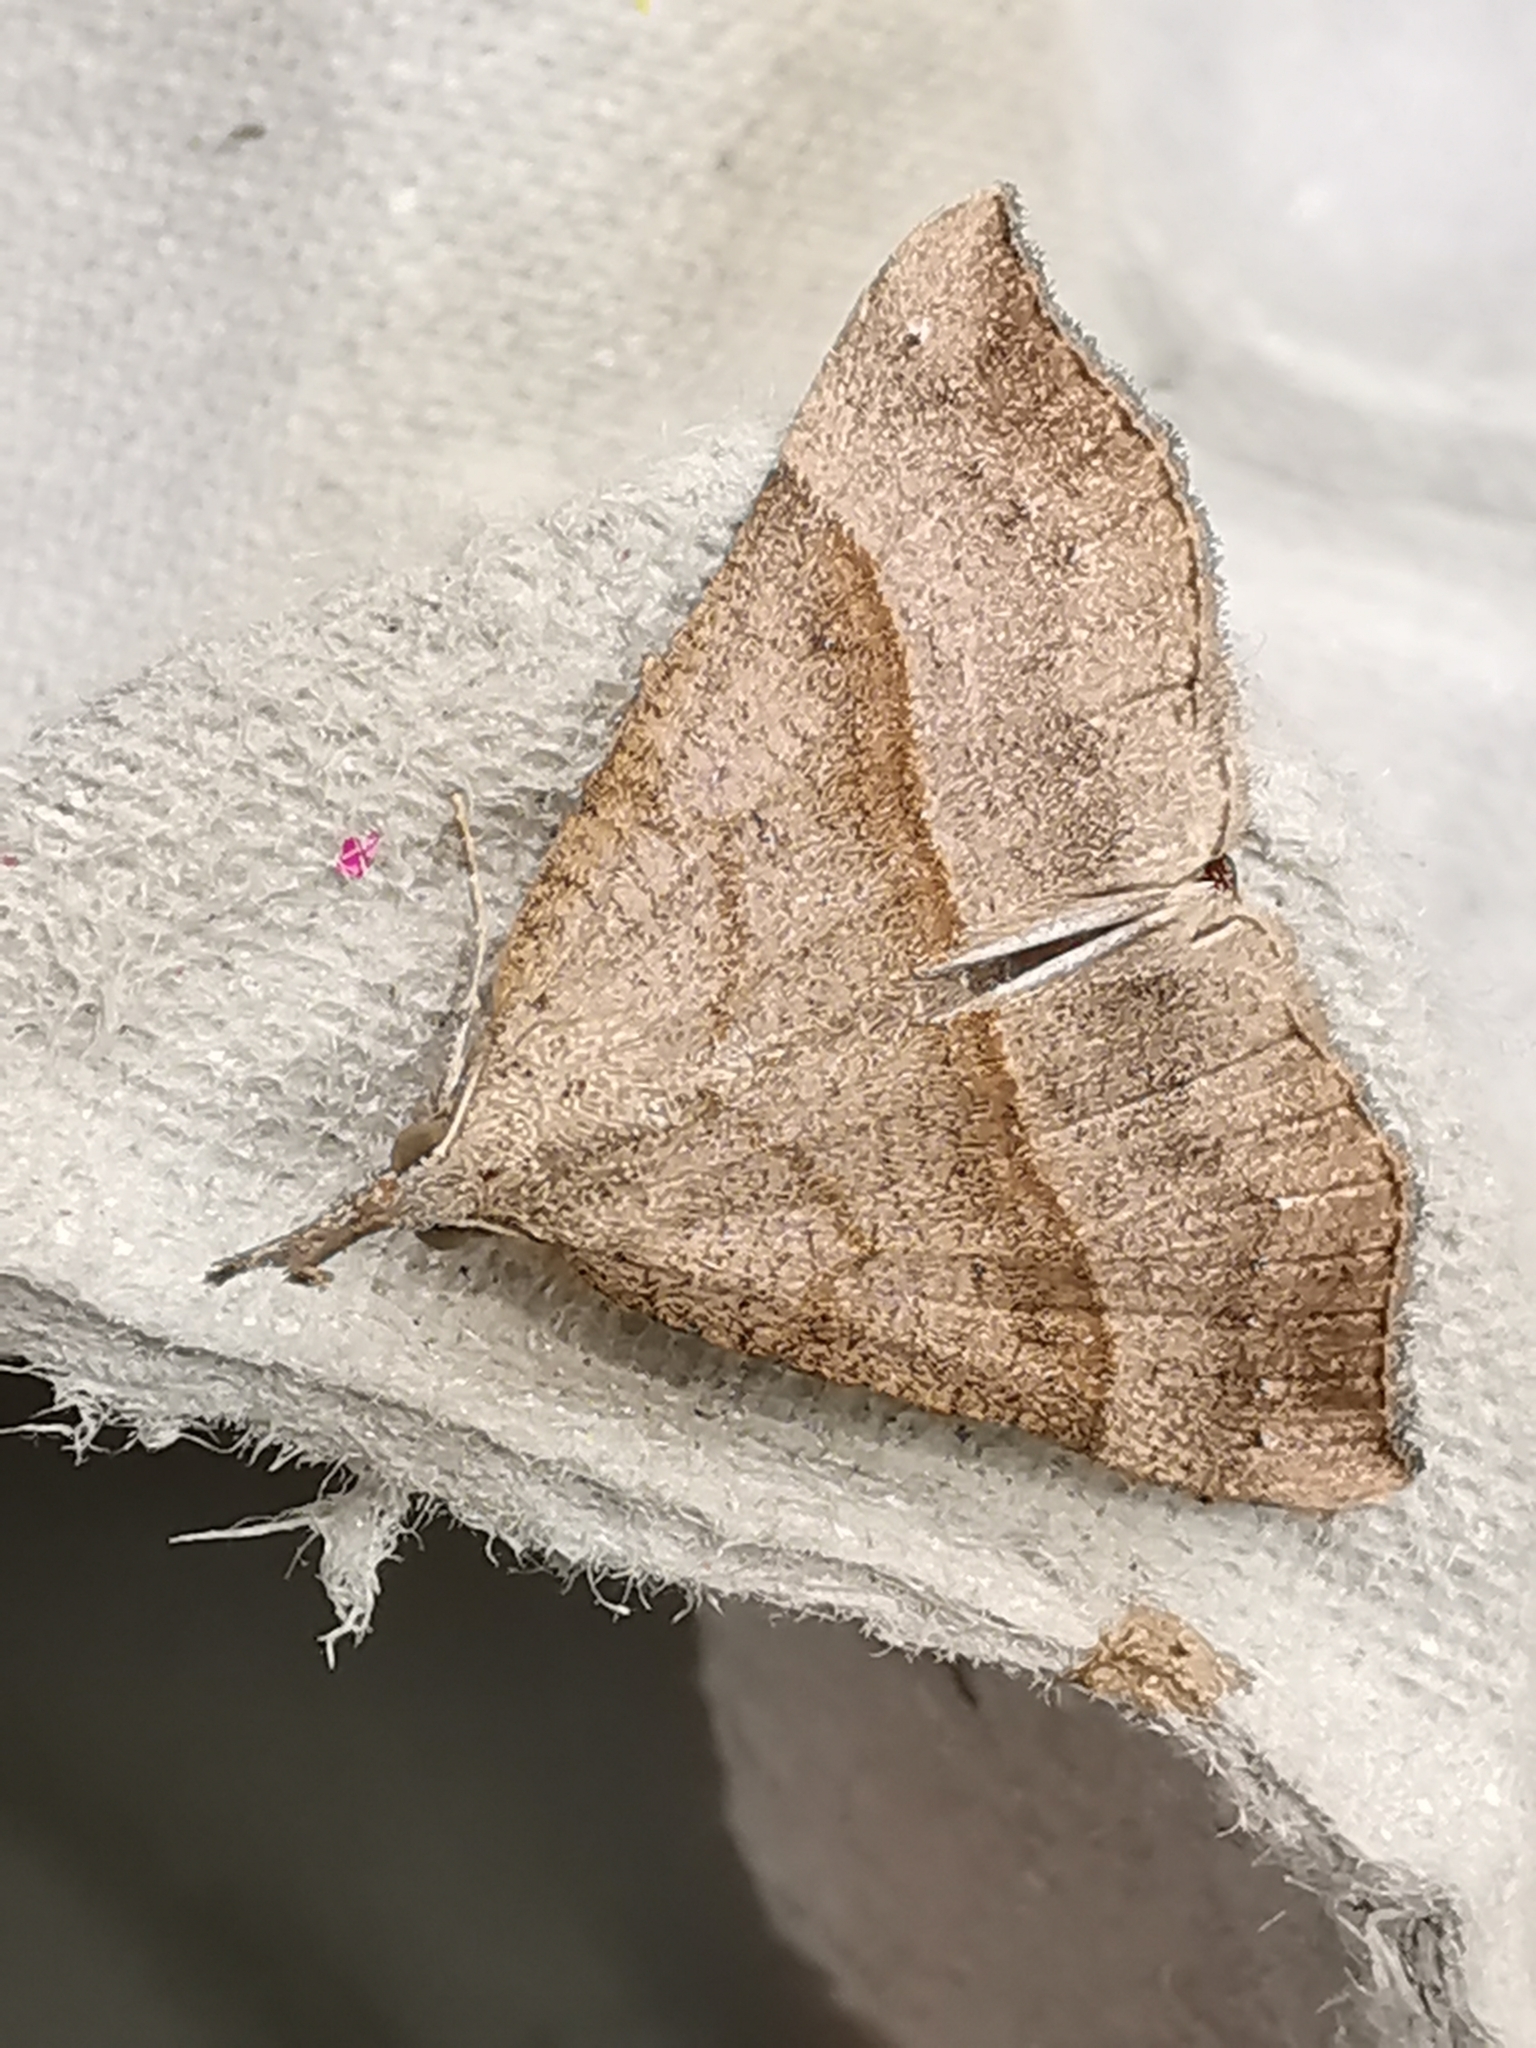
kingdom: Animalia
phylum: Arthropoda
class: Insecta
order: Lepidoptera
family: Erebidae
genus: Hypena
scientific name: Hypena proboscidalis
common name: Snout
